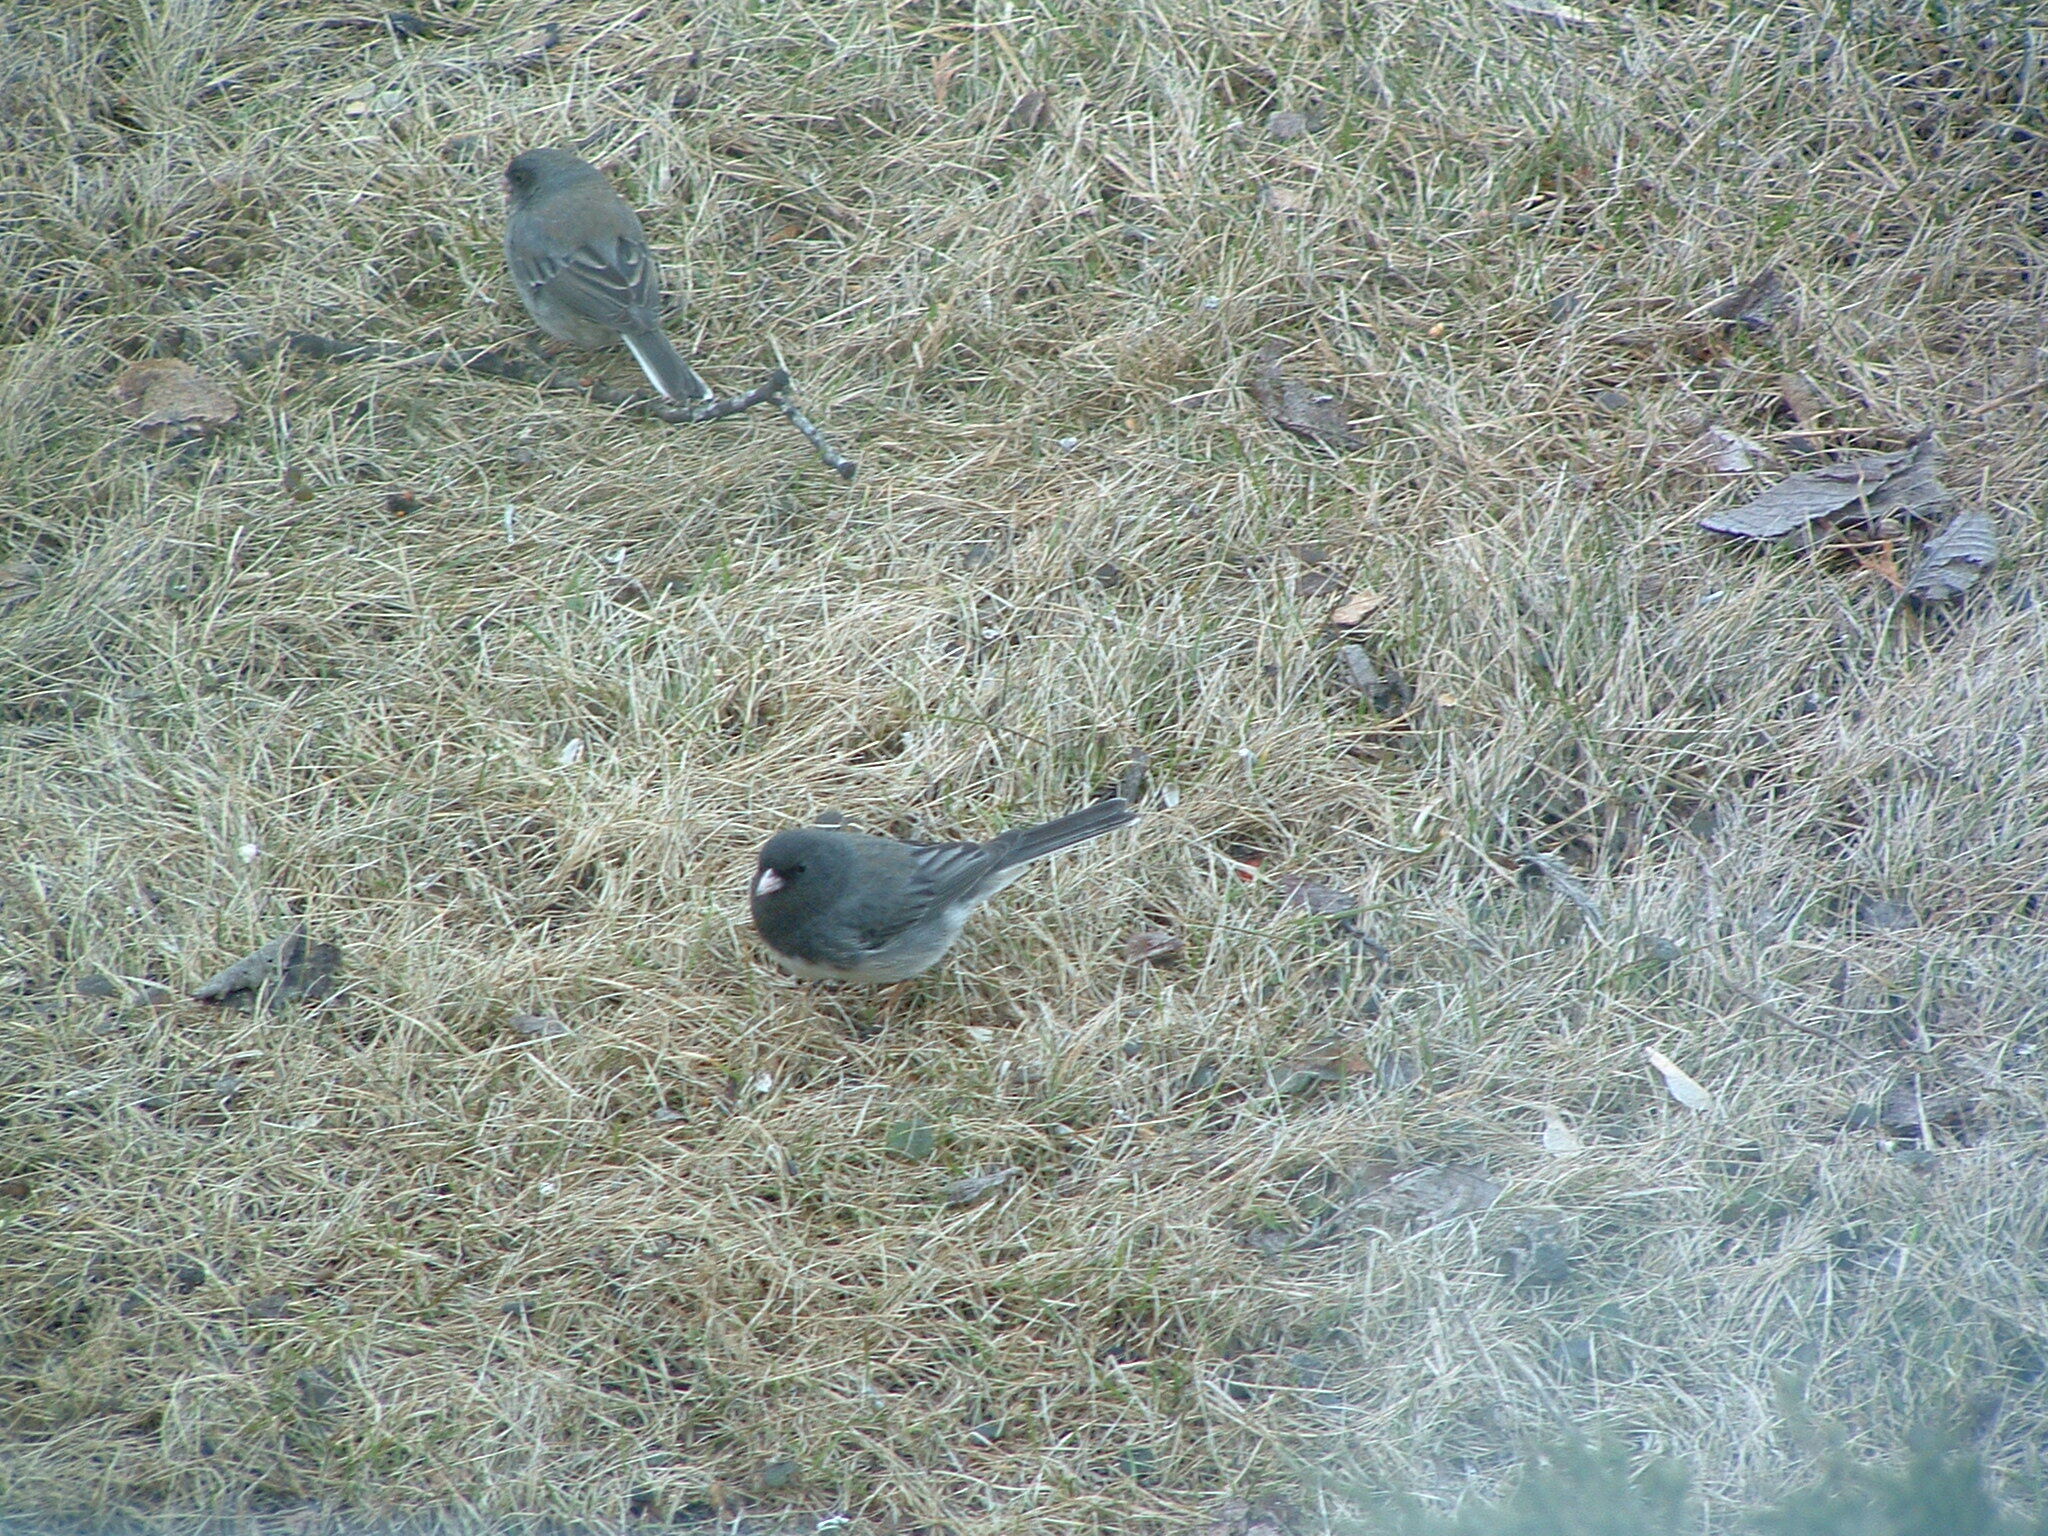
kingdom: Animalia
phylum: Chordata
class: Aves
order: Passeriformes
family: Passerellidae
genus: Junco
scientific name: Junco hyemalis
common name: Dark-eyed junco
